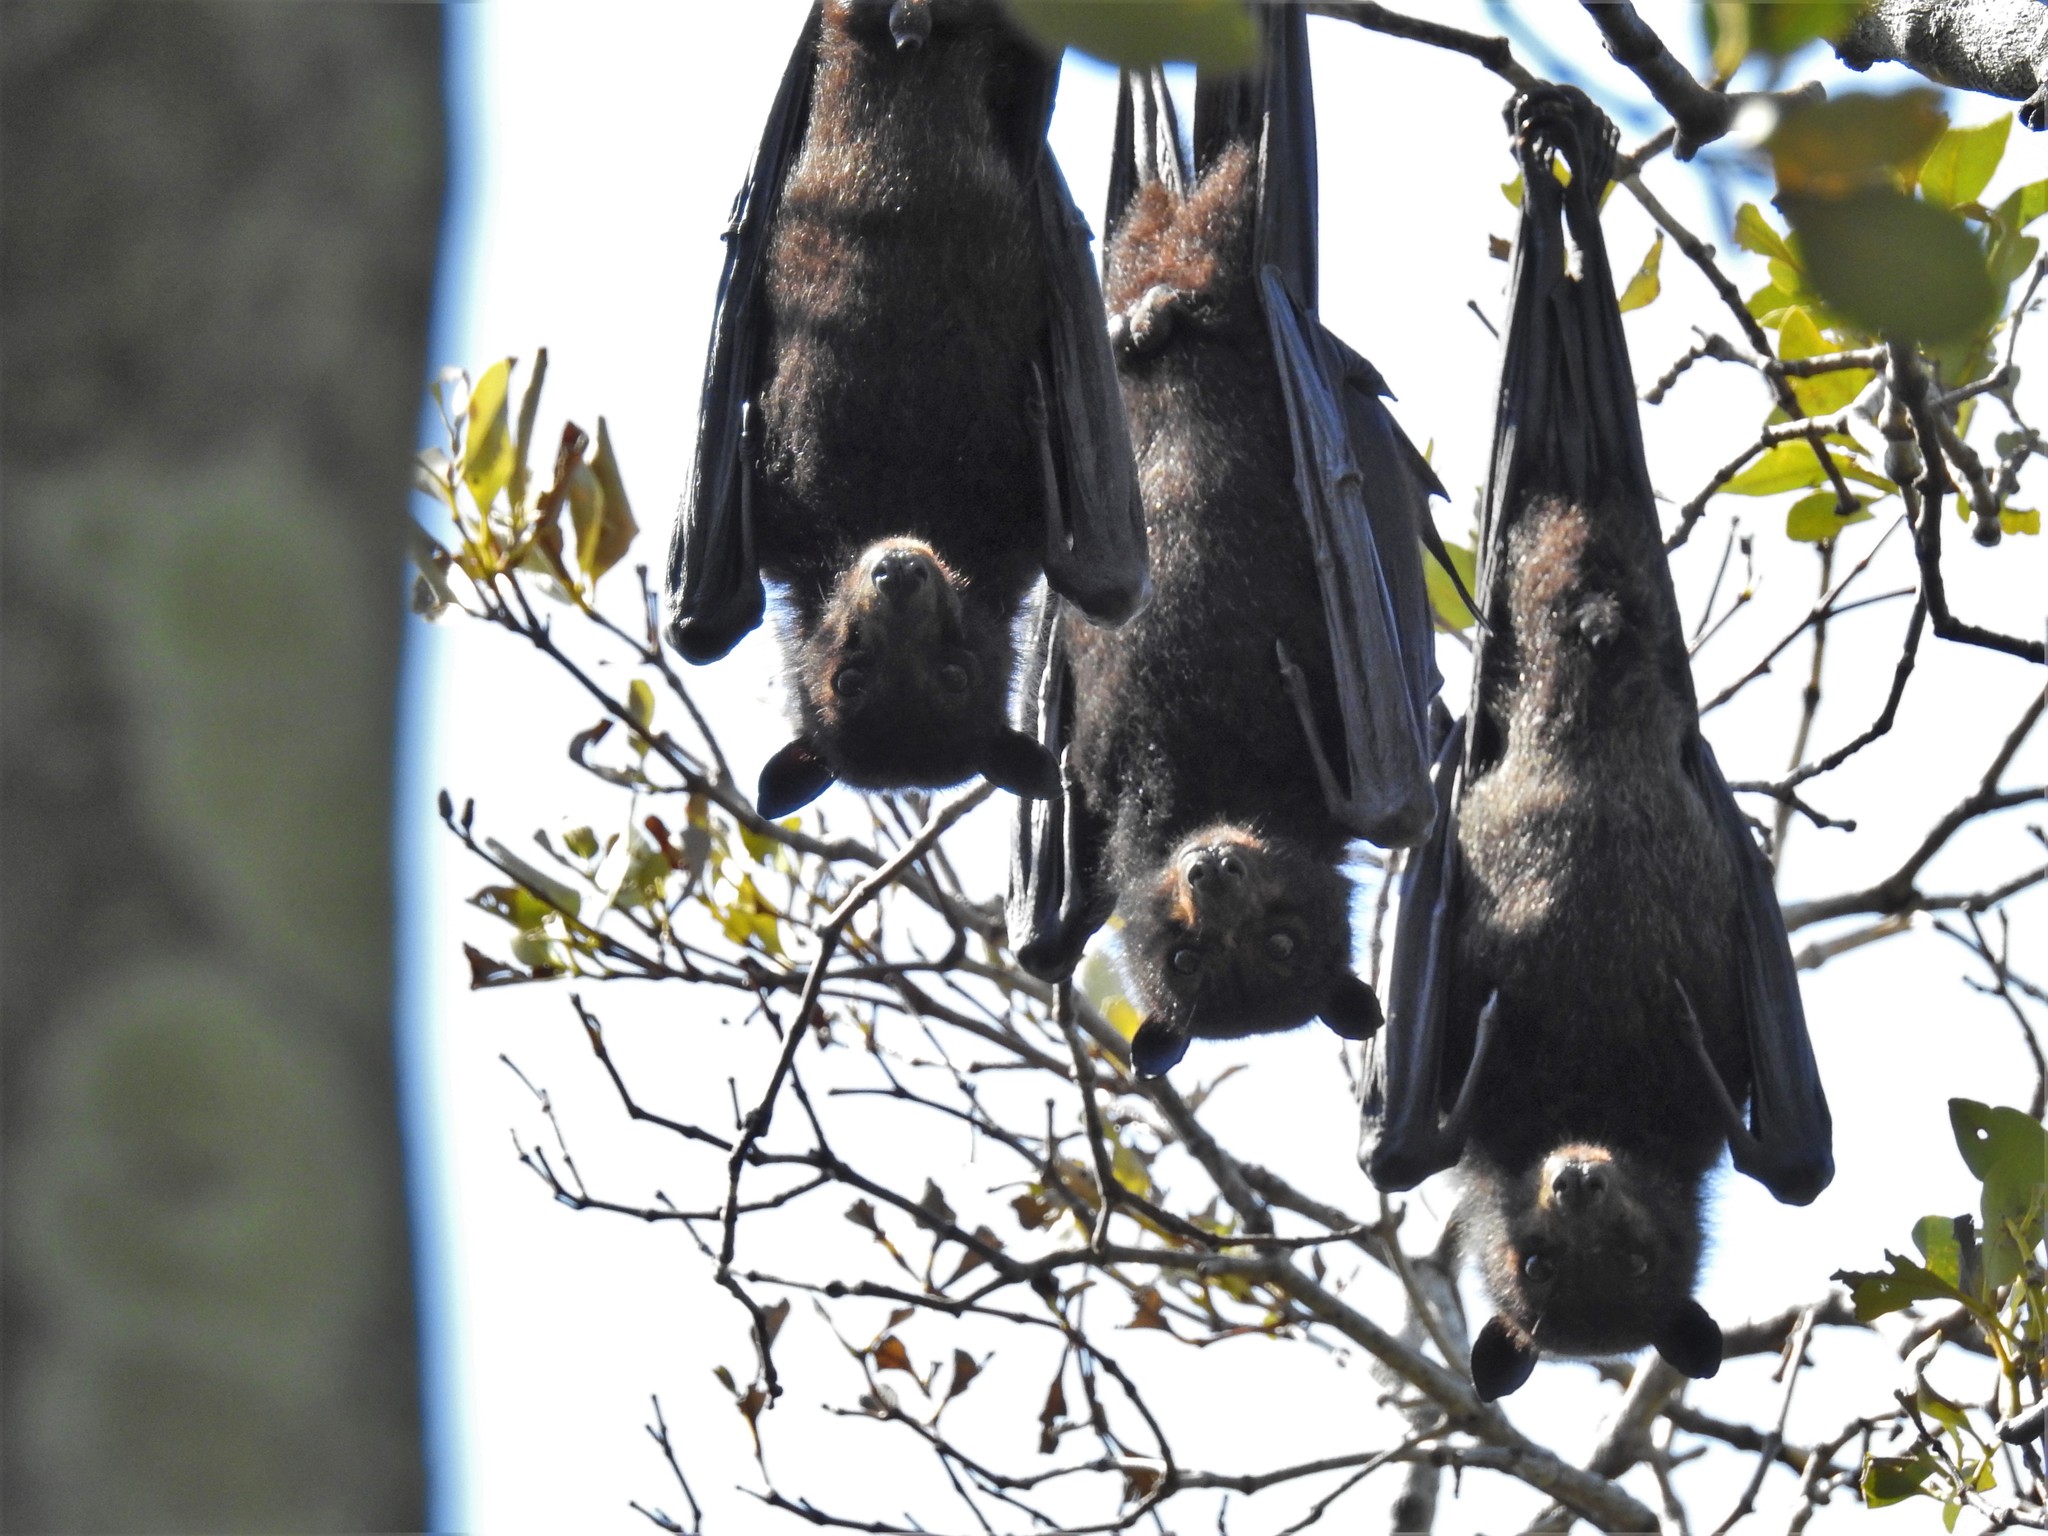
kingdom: Animalia
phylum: Chordata
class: Mammalia
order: Chiroptera
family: Pteropodidae
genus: Pteropus
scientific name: Pteropus alecto
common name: Black flying fox
